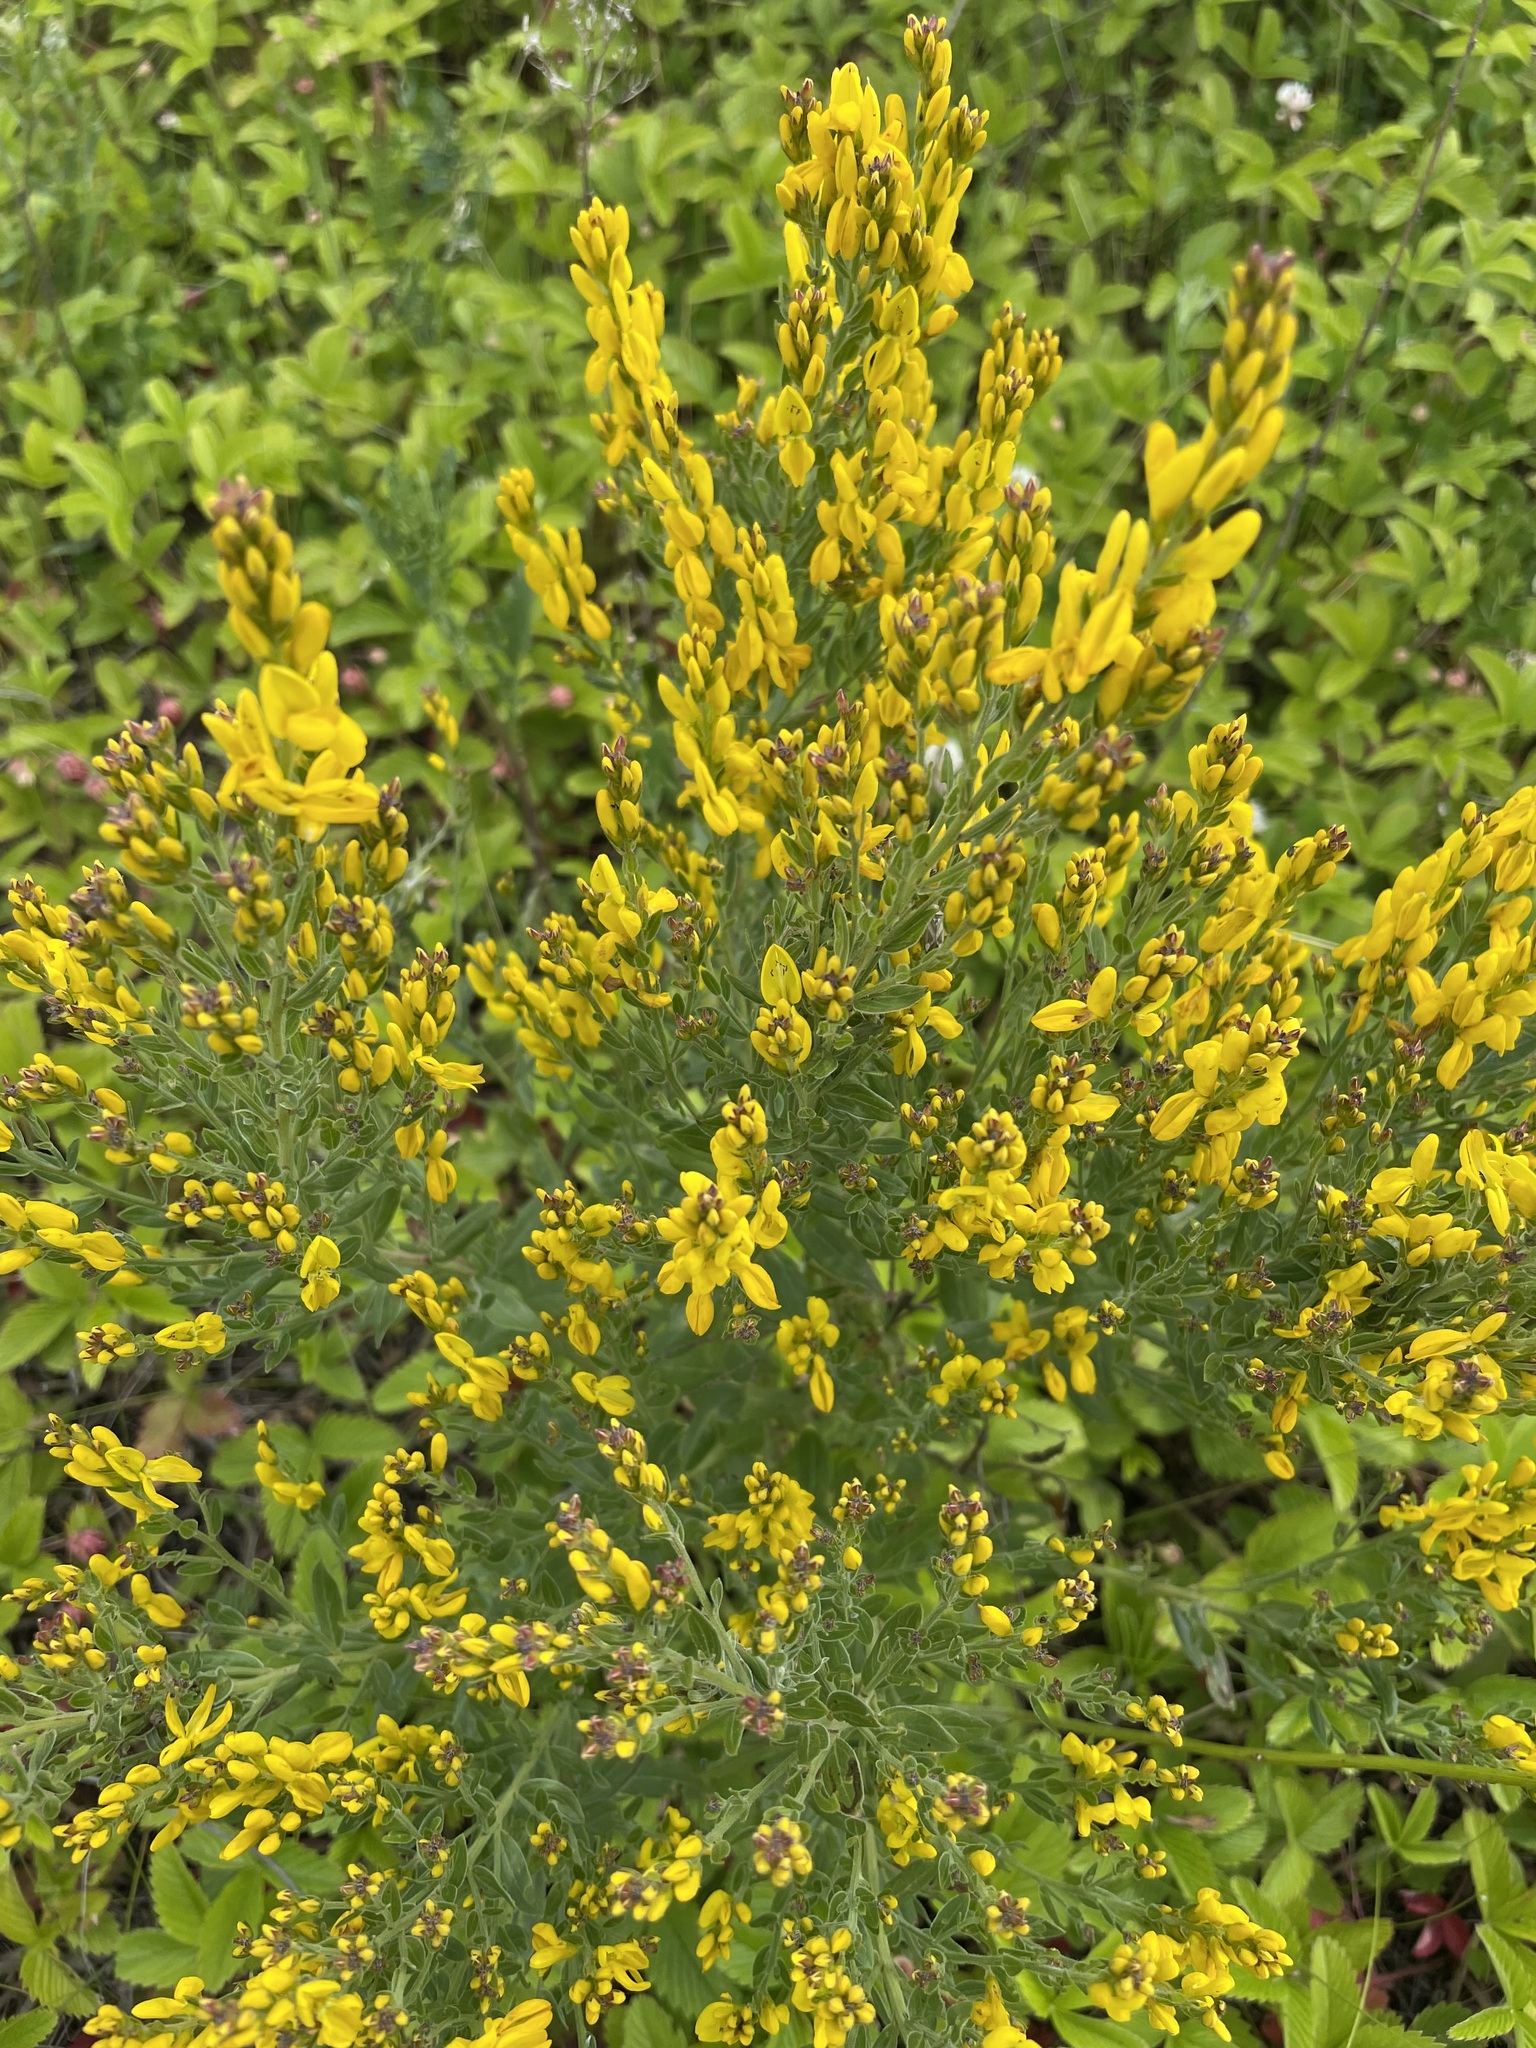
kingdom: Plantae
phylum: Tracheophyta
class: Magnoliopsida
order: Fabales
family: Fabaceae
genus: Genista
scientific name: Genista tinctoria
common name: Dyer's greenweed
